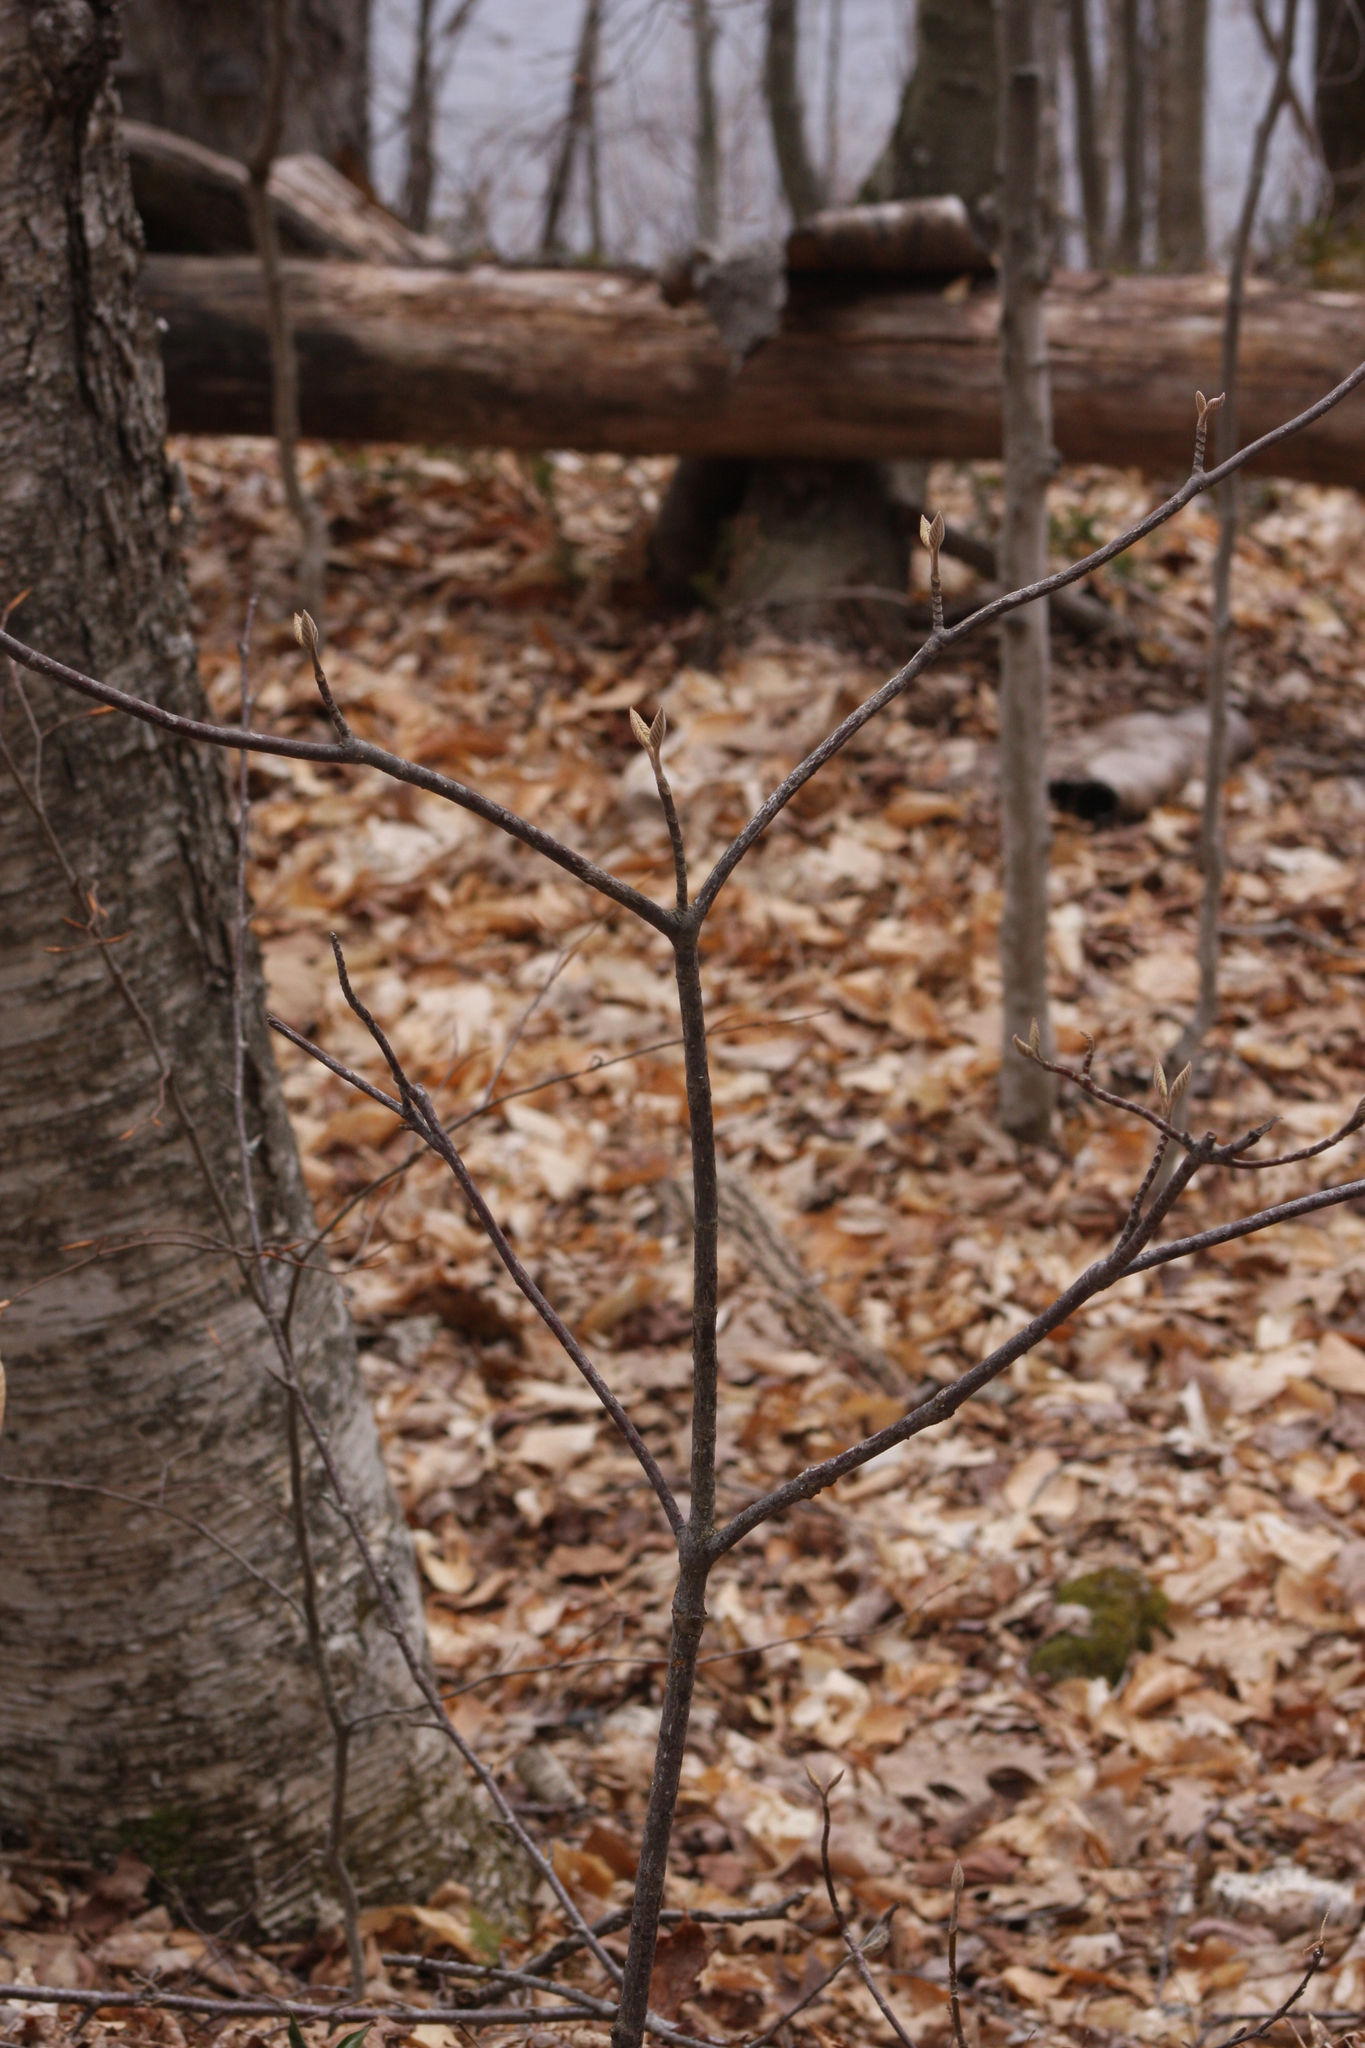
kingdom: Plantae
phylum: Tracheophyta
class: Magnoliopsida
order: Dipsacales
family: Viburnaceae
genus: Viburnum
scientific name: Viburnum lantanoides
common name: Hobblebush
